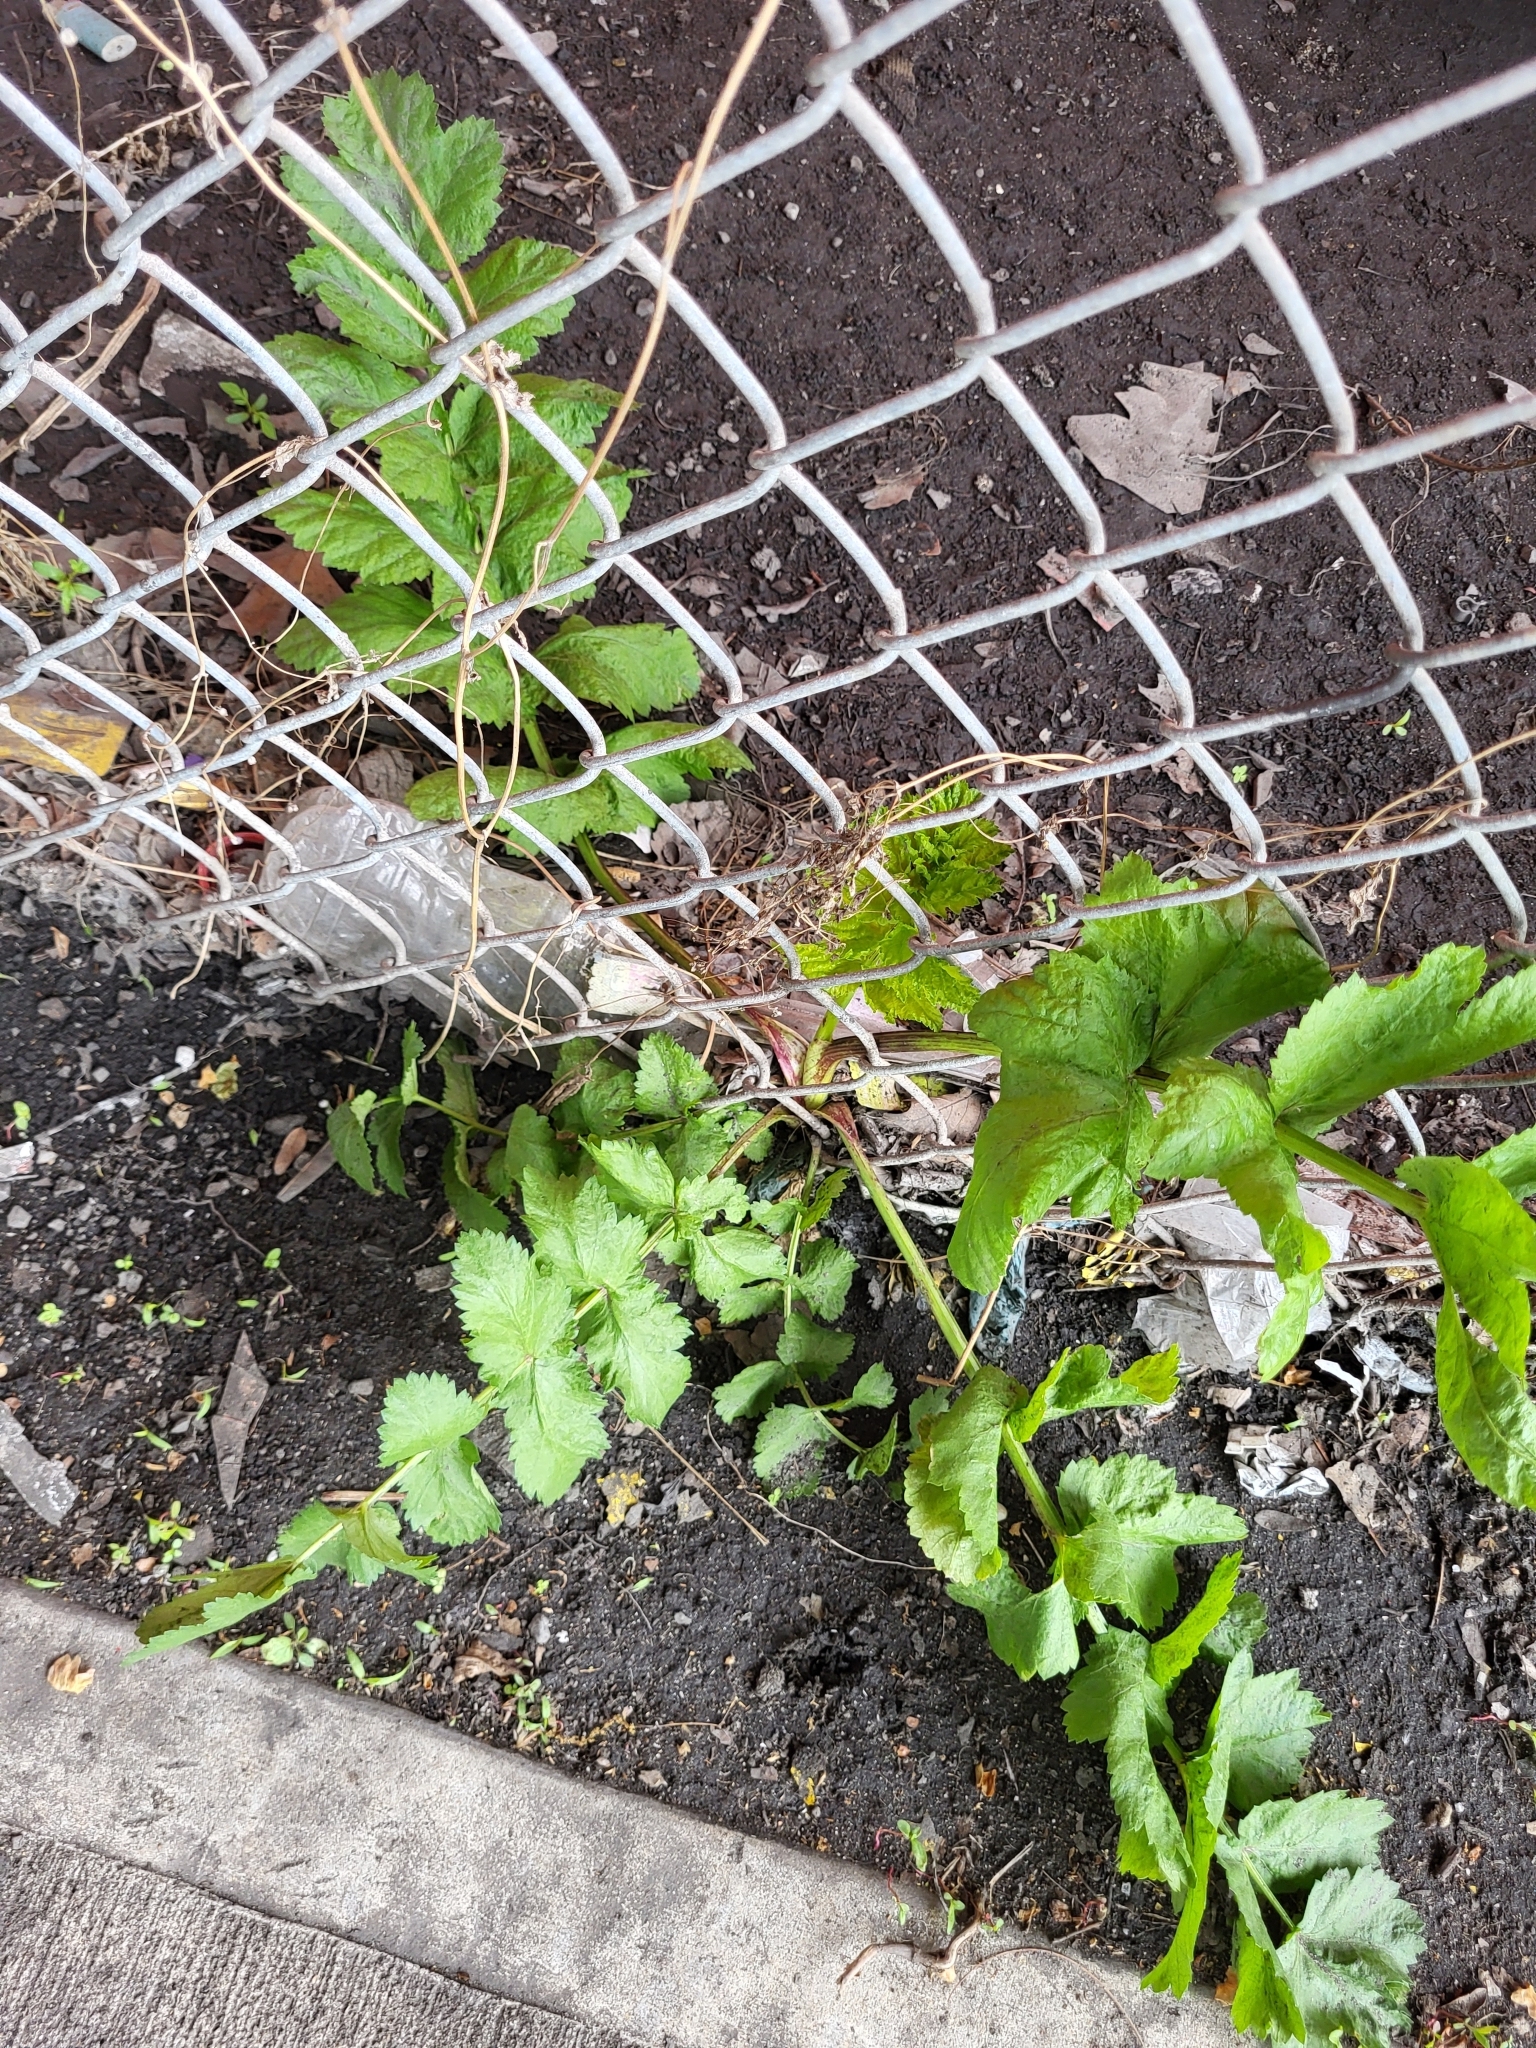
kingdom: Plantae
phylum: Tracheophyta
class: Magnoliopsida
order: Apiales
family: Apiaceae
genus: Pastinaca
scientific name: Pastinaca sativa
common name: Wild parsnip
